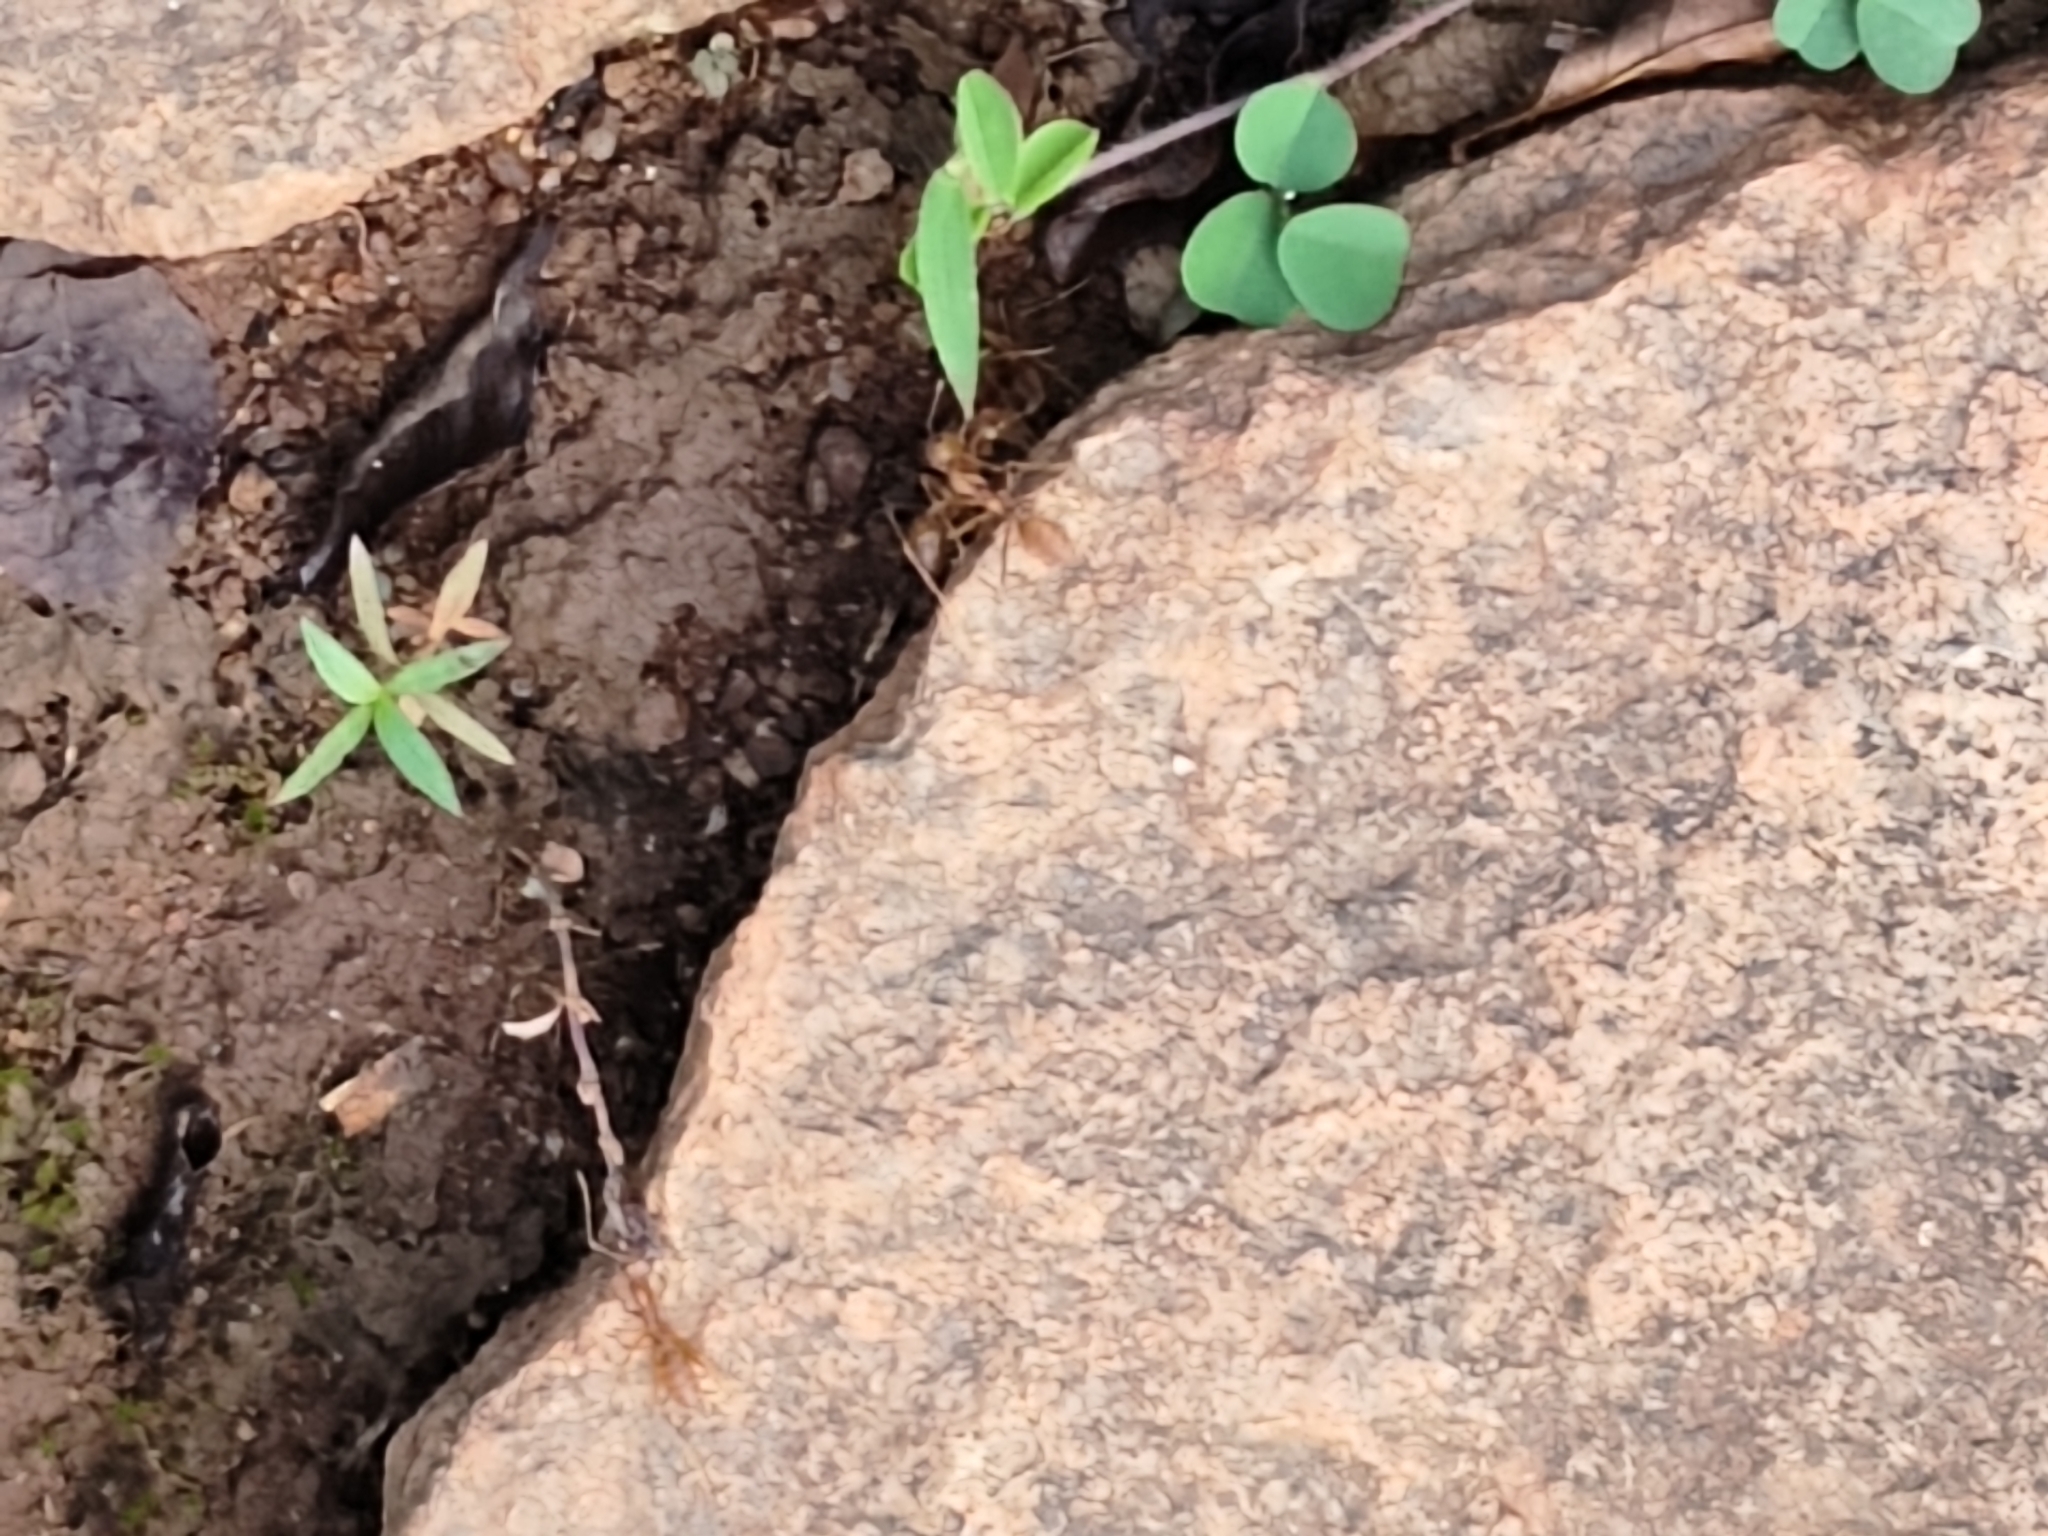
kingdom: Animalia
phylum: Arthropoda
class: Insecta
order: Hymenoptera
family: Formicidae
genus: Oecophylla
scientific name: Oecophylla smaragdina
